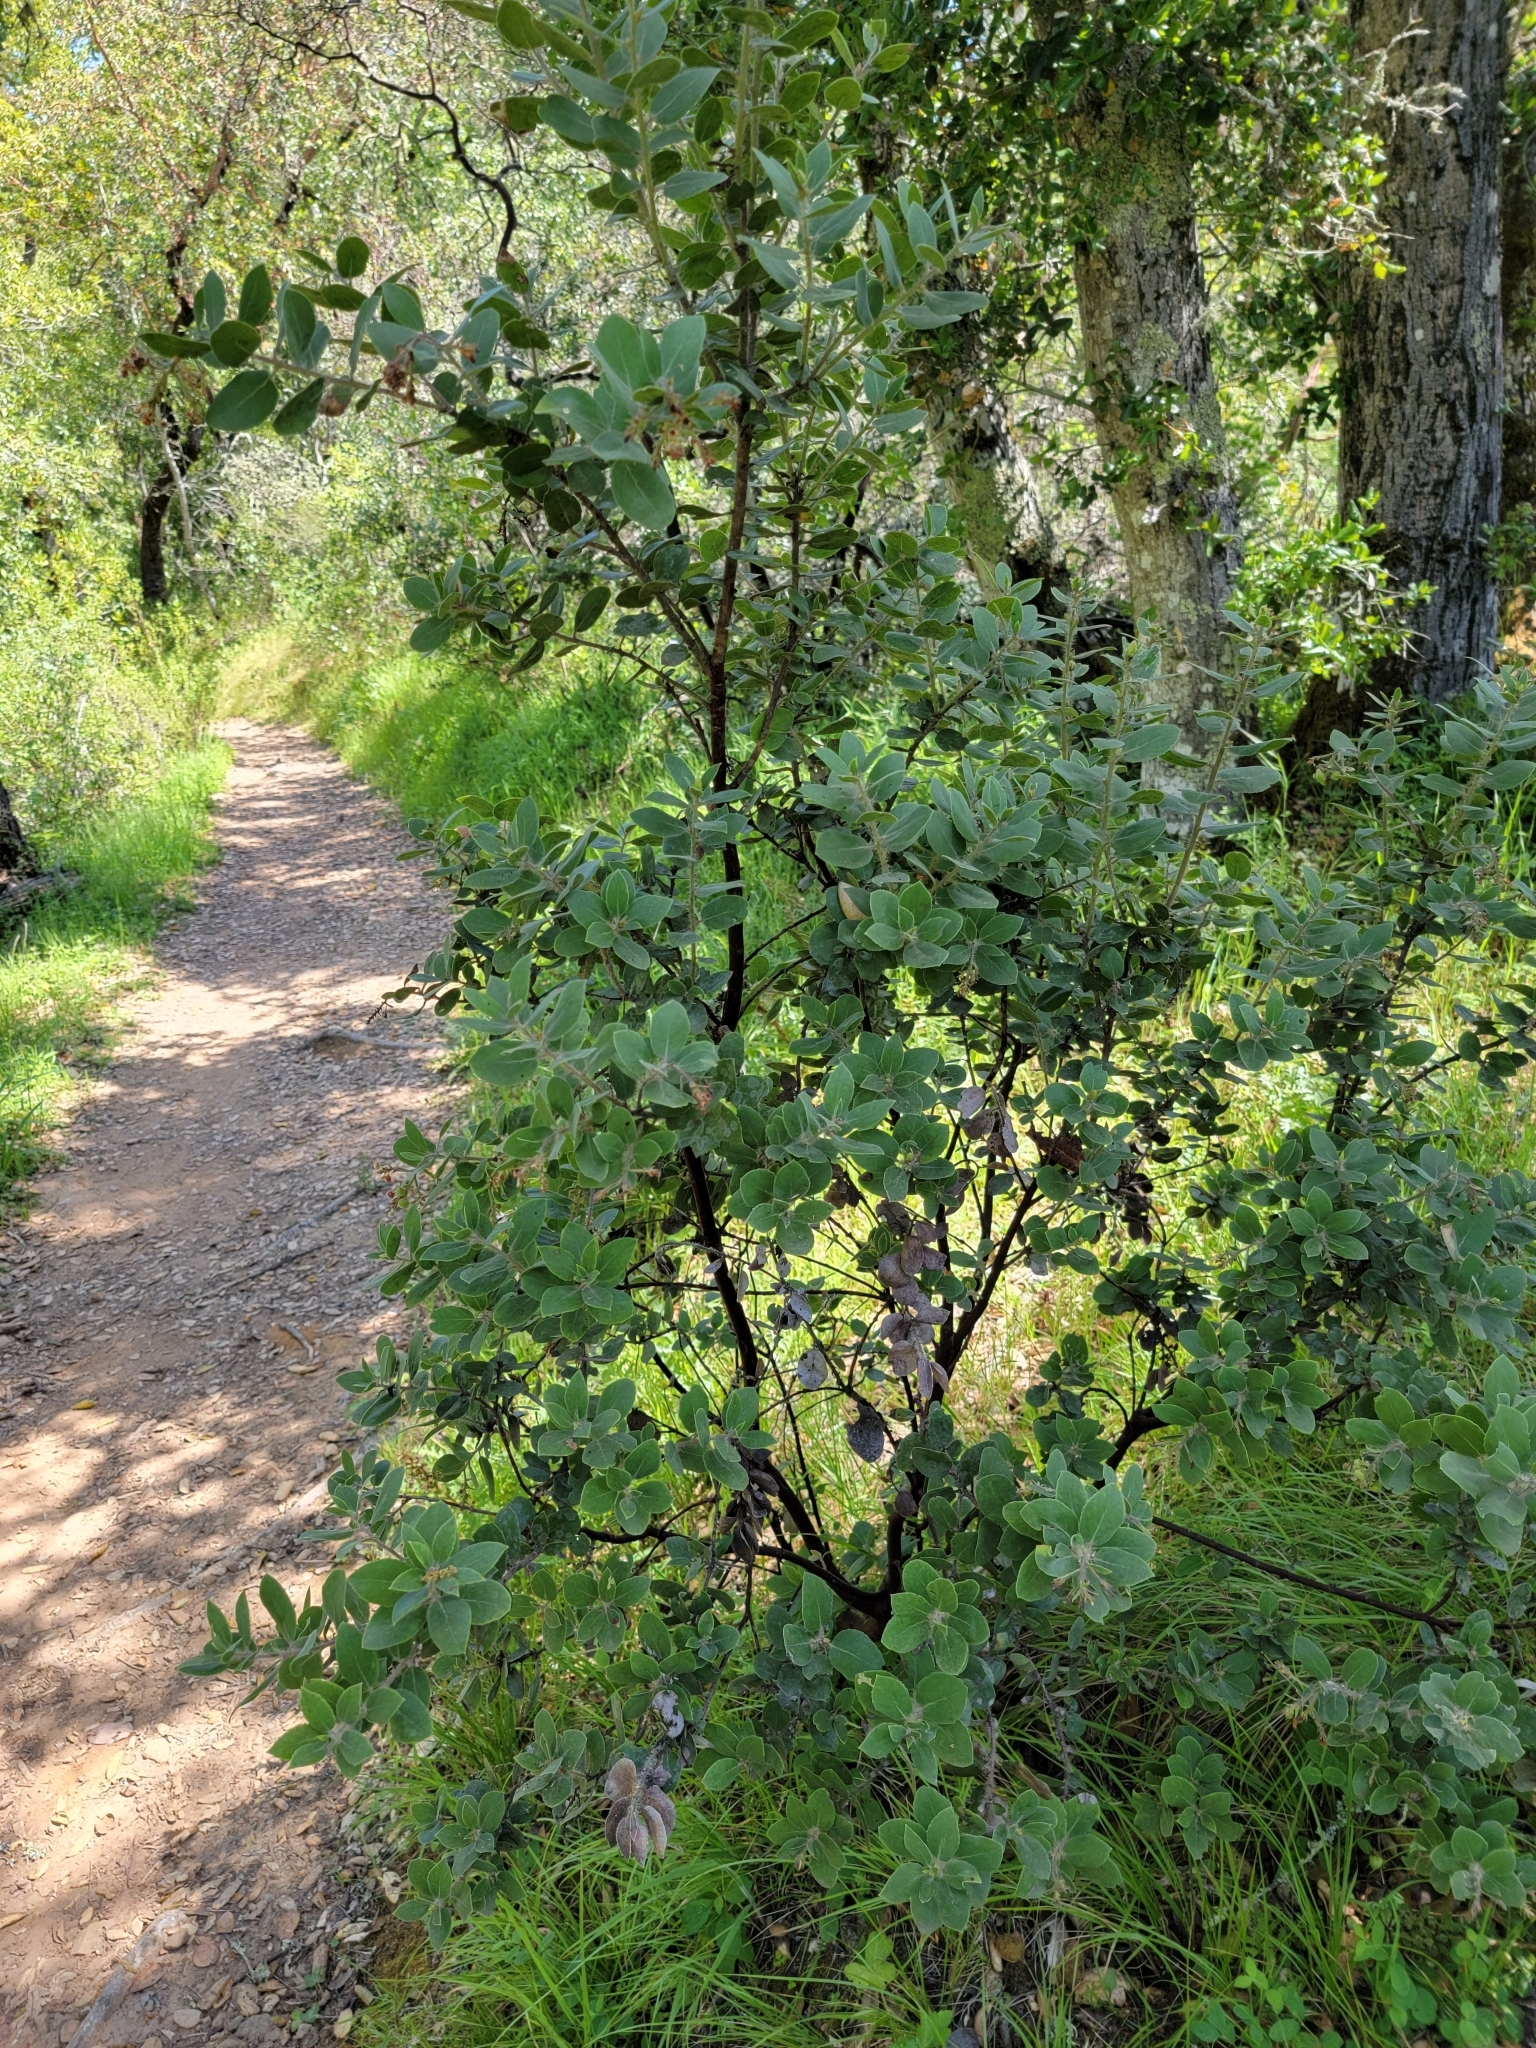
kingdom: Plantae
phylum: Tracheophyta
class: Magnoliopsida
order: Ericales
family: Ericaceae
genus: Arctostaphylos
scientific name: Arctostaphylos crustacea
